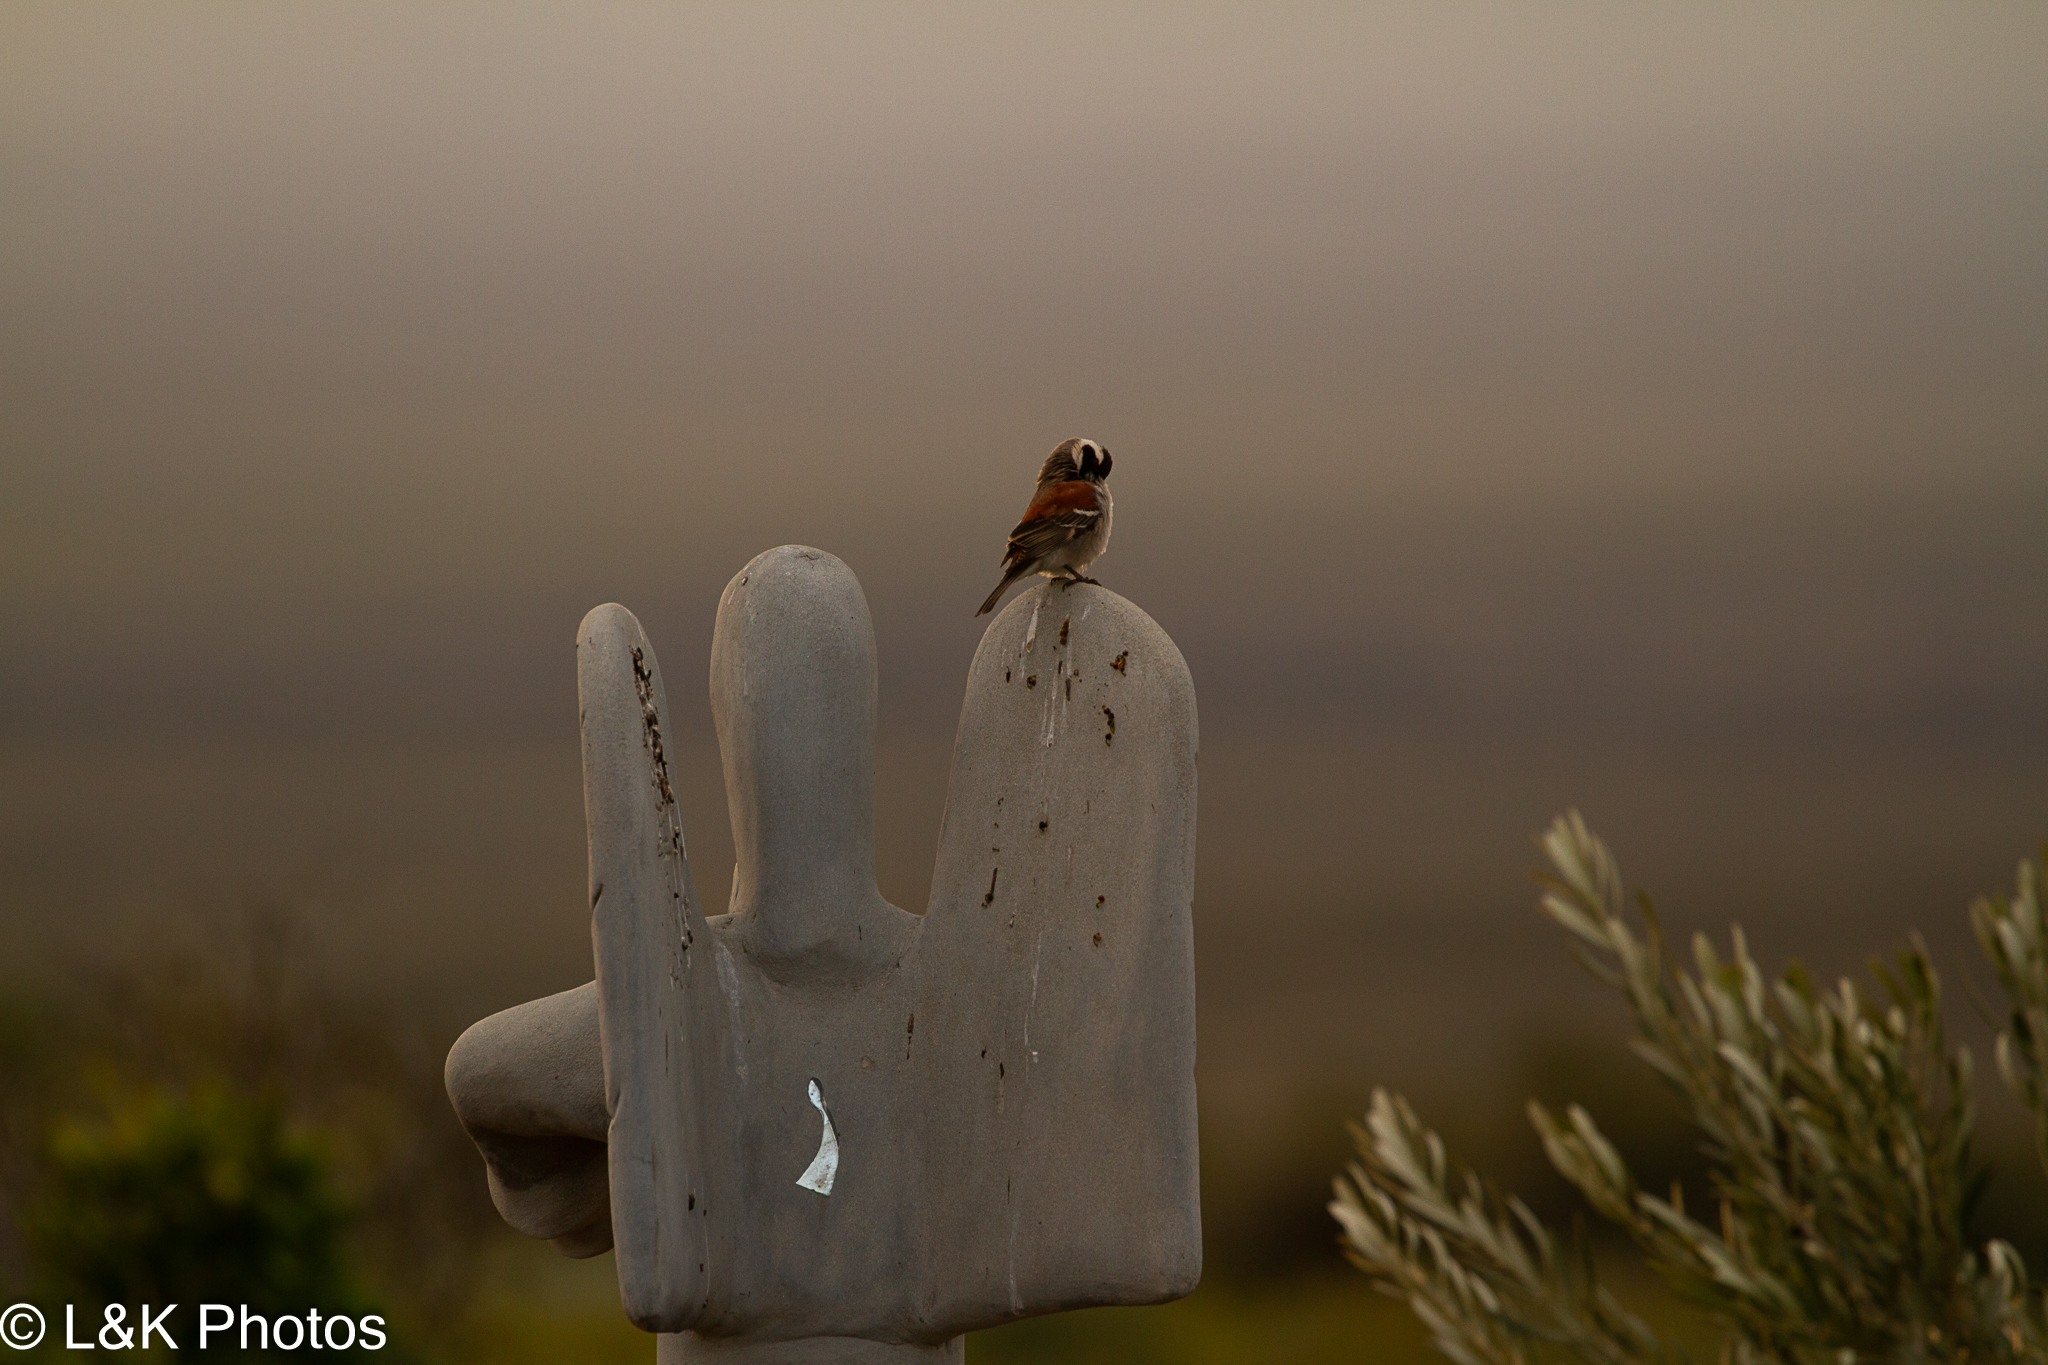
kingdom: Animalia
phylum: Chordata
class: Aves
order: Passeriformes
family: Passeridae
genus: Passer
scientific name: Passer melanurus
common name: Cape sparrow
